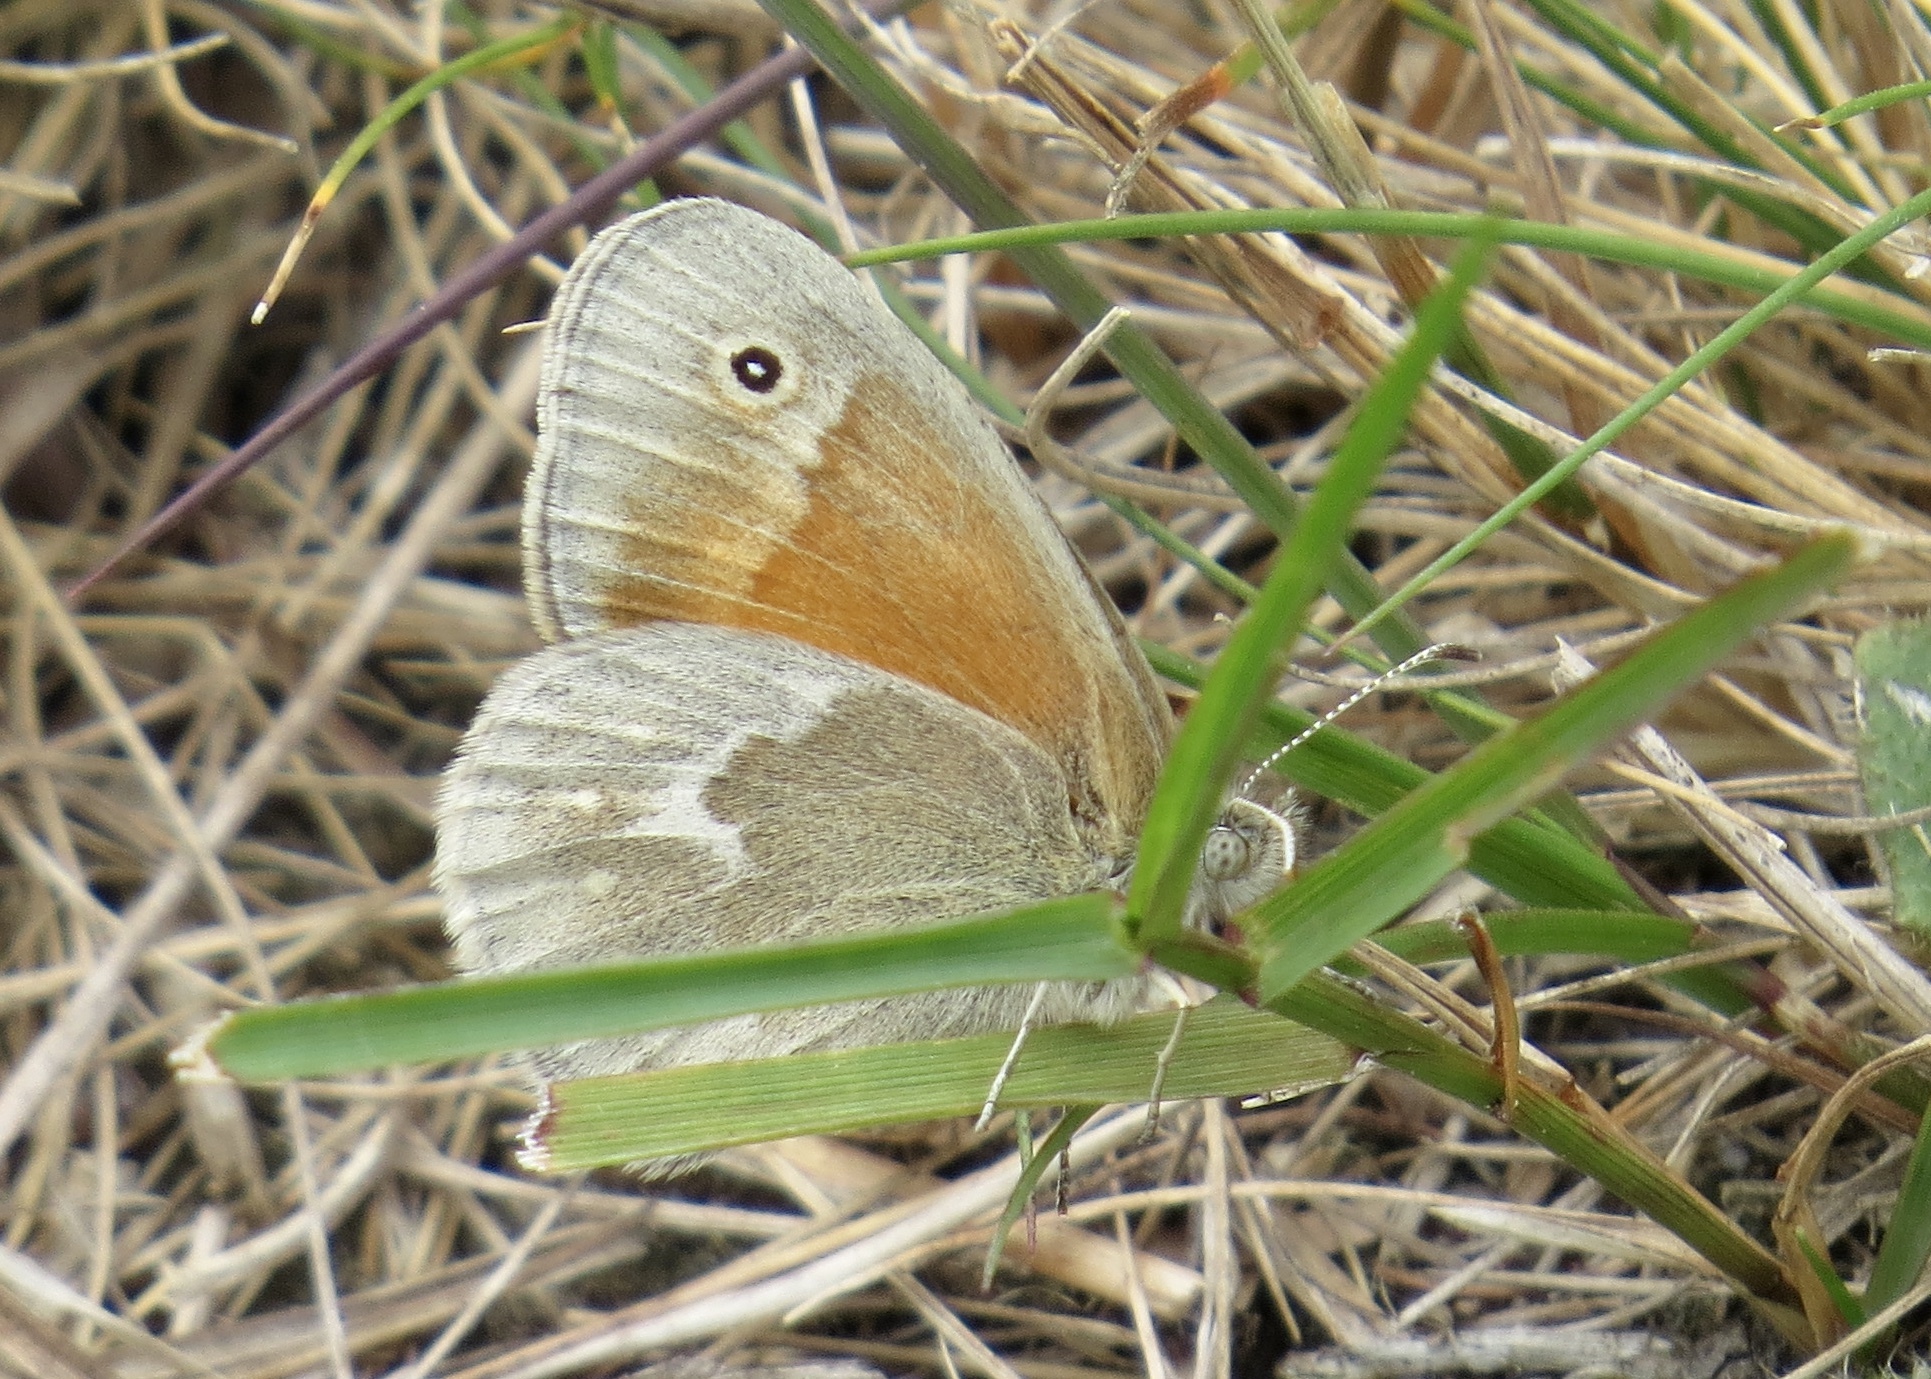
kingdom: Animalia
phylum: Arthropoda
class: Insecta
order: Lepidoptera
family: Nymphalidae
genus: Coenonympha
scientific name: Coenonympha california
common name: Common ringlet
